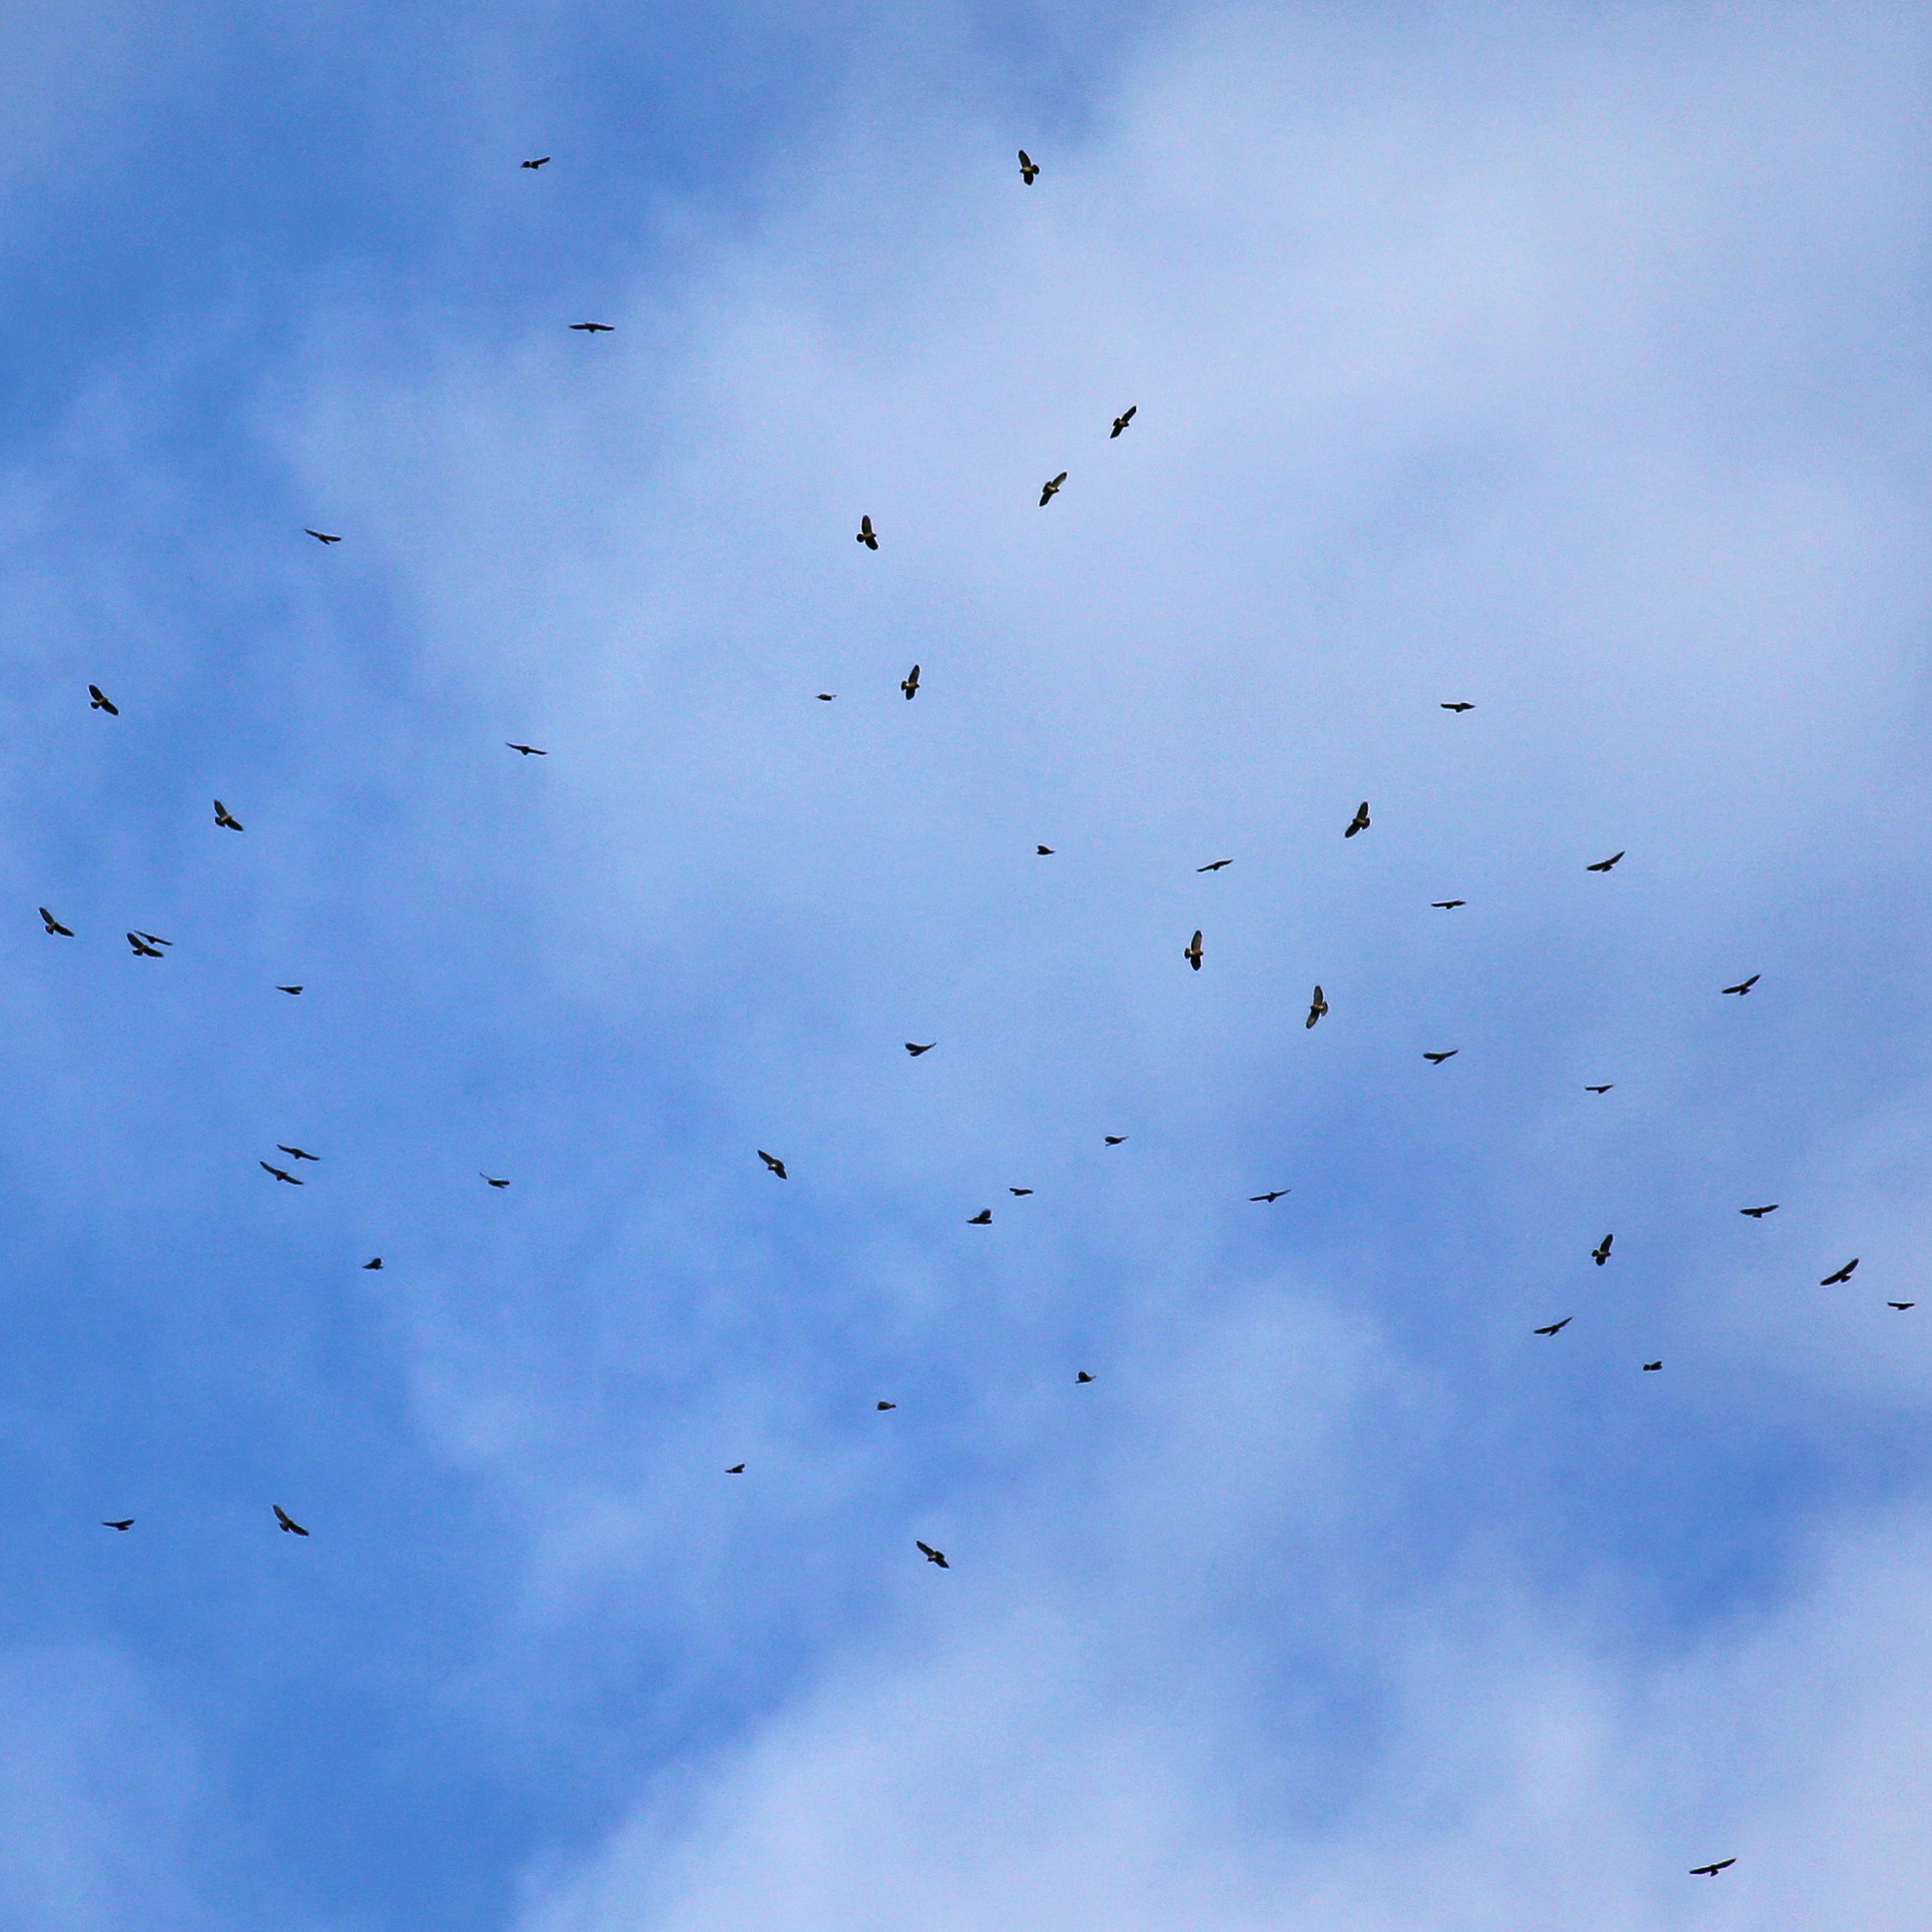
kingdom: Animalia
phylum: Chordata
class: Aves
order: Accipitriformes
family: Accipitridae
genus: Buteo
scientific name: Buteo platypterus
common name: Broad-winged hawk
